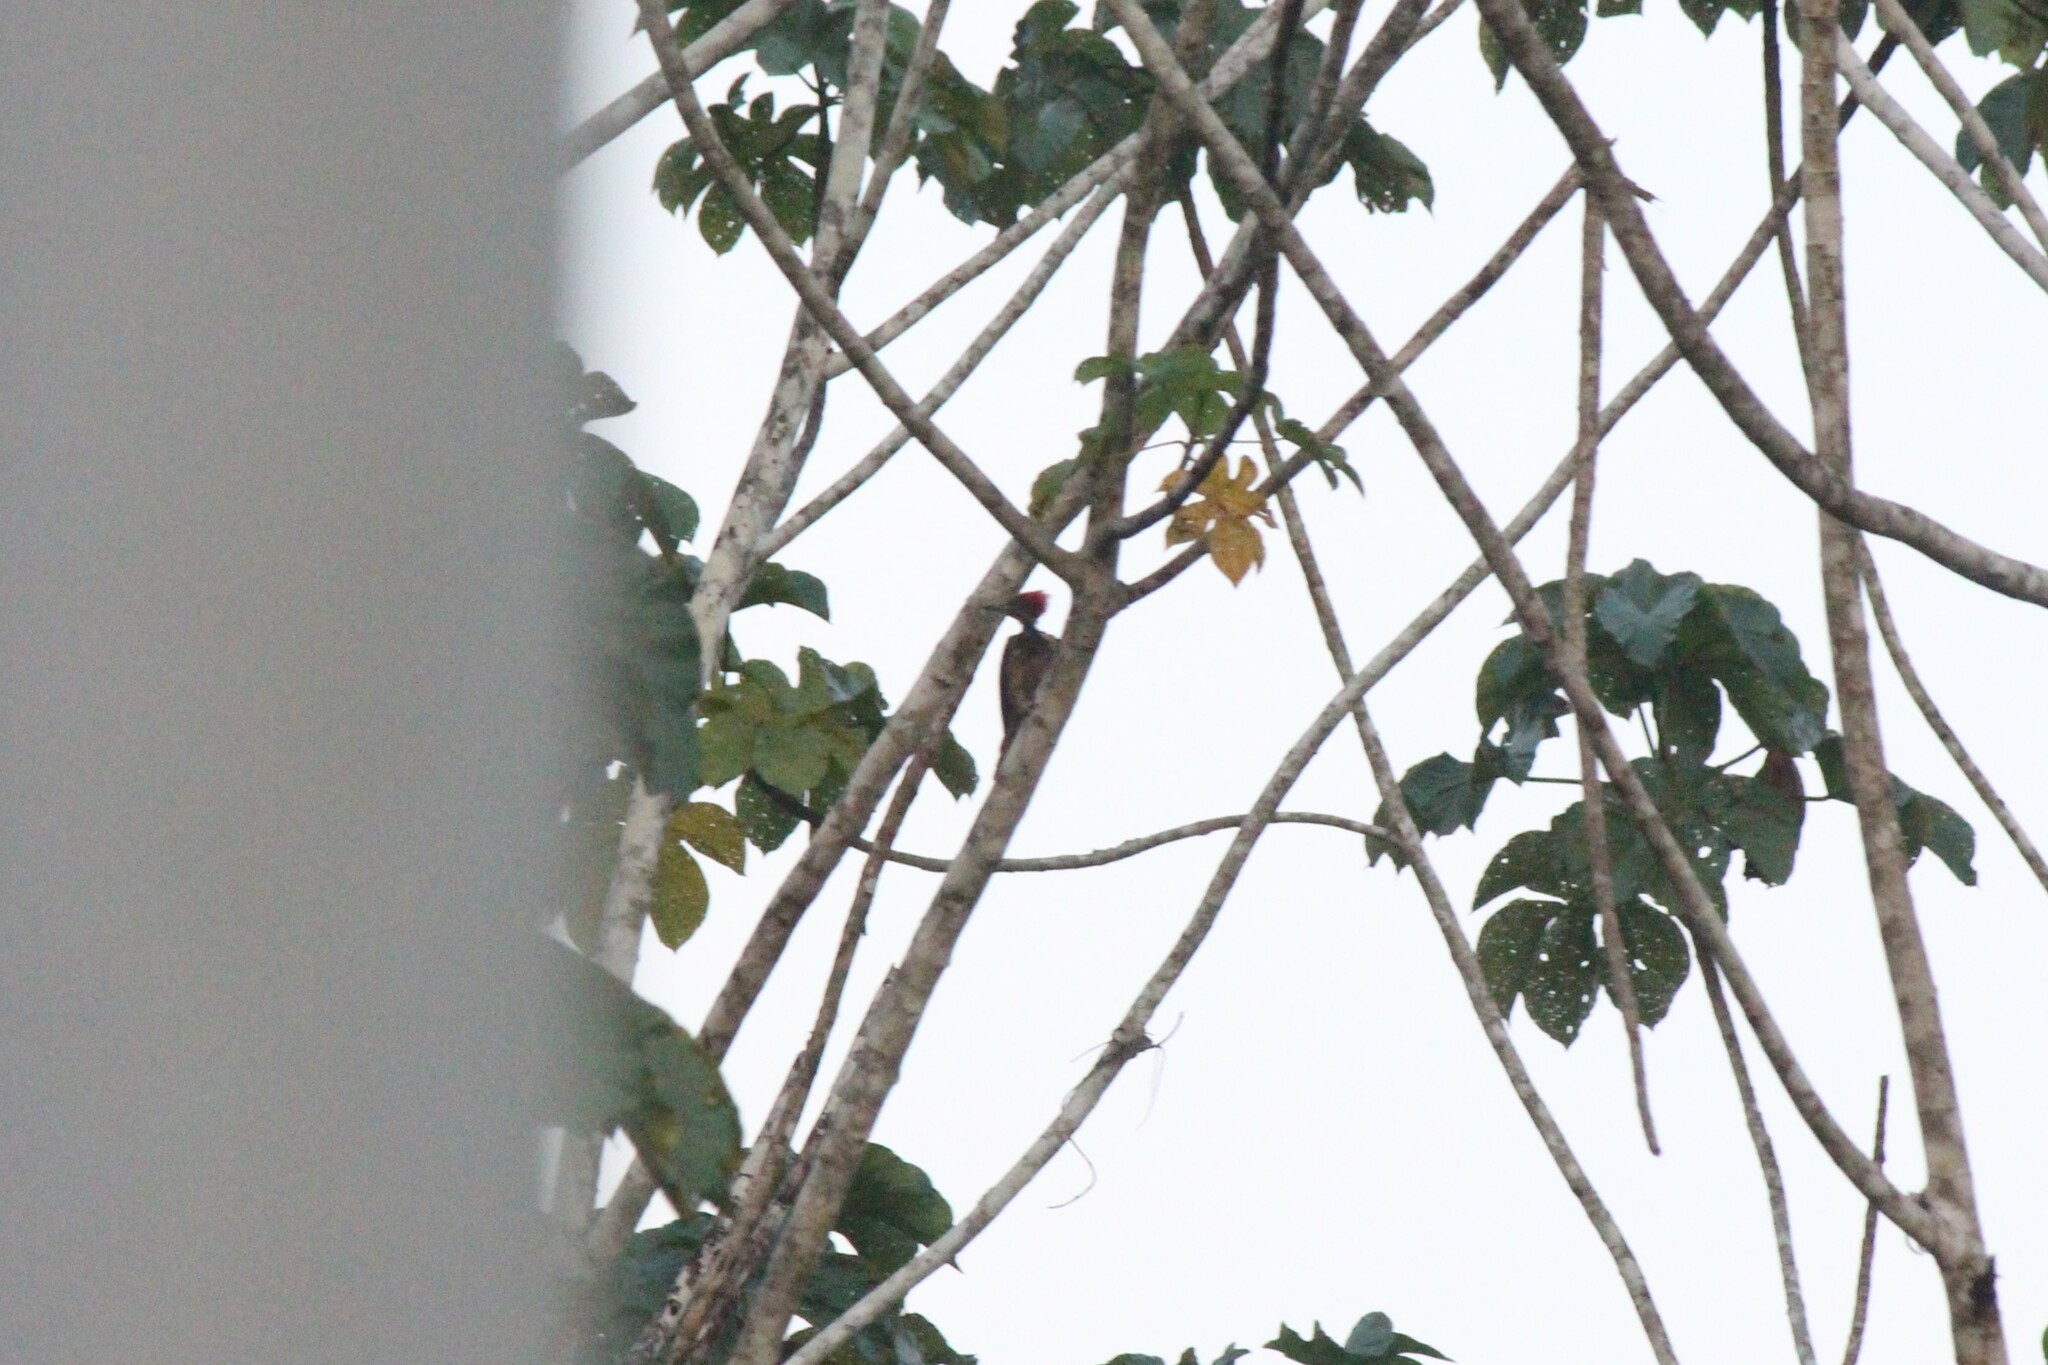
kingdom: Animalia
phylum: Chordata
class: Aves
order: Piciformes
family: Picidae
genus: Dryocopus
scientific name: Dryocopus lineatus
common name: Lineated woodpecker
